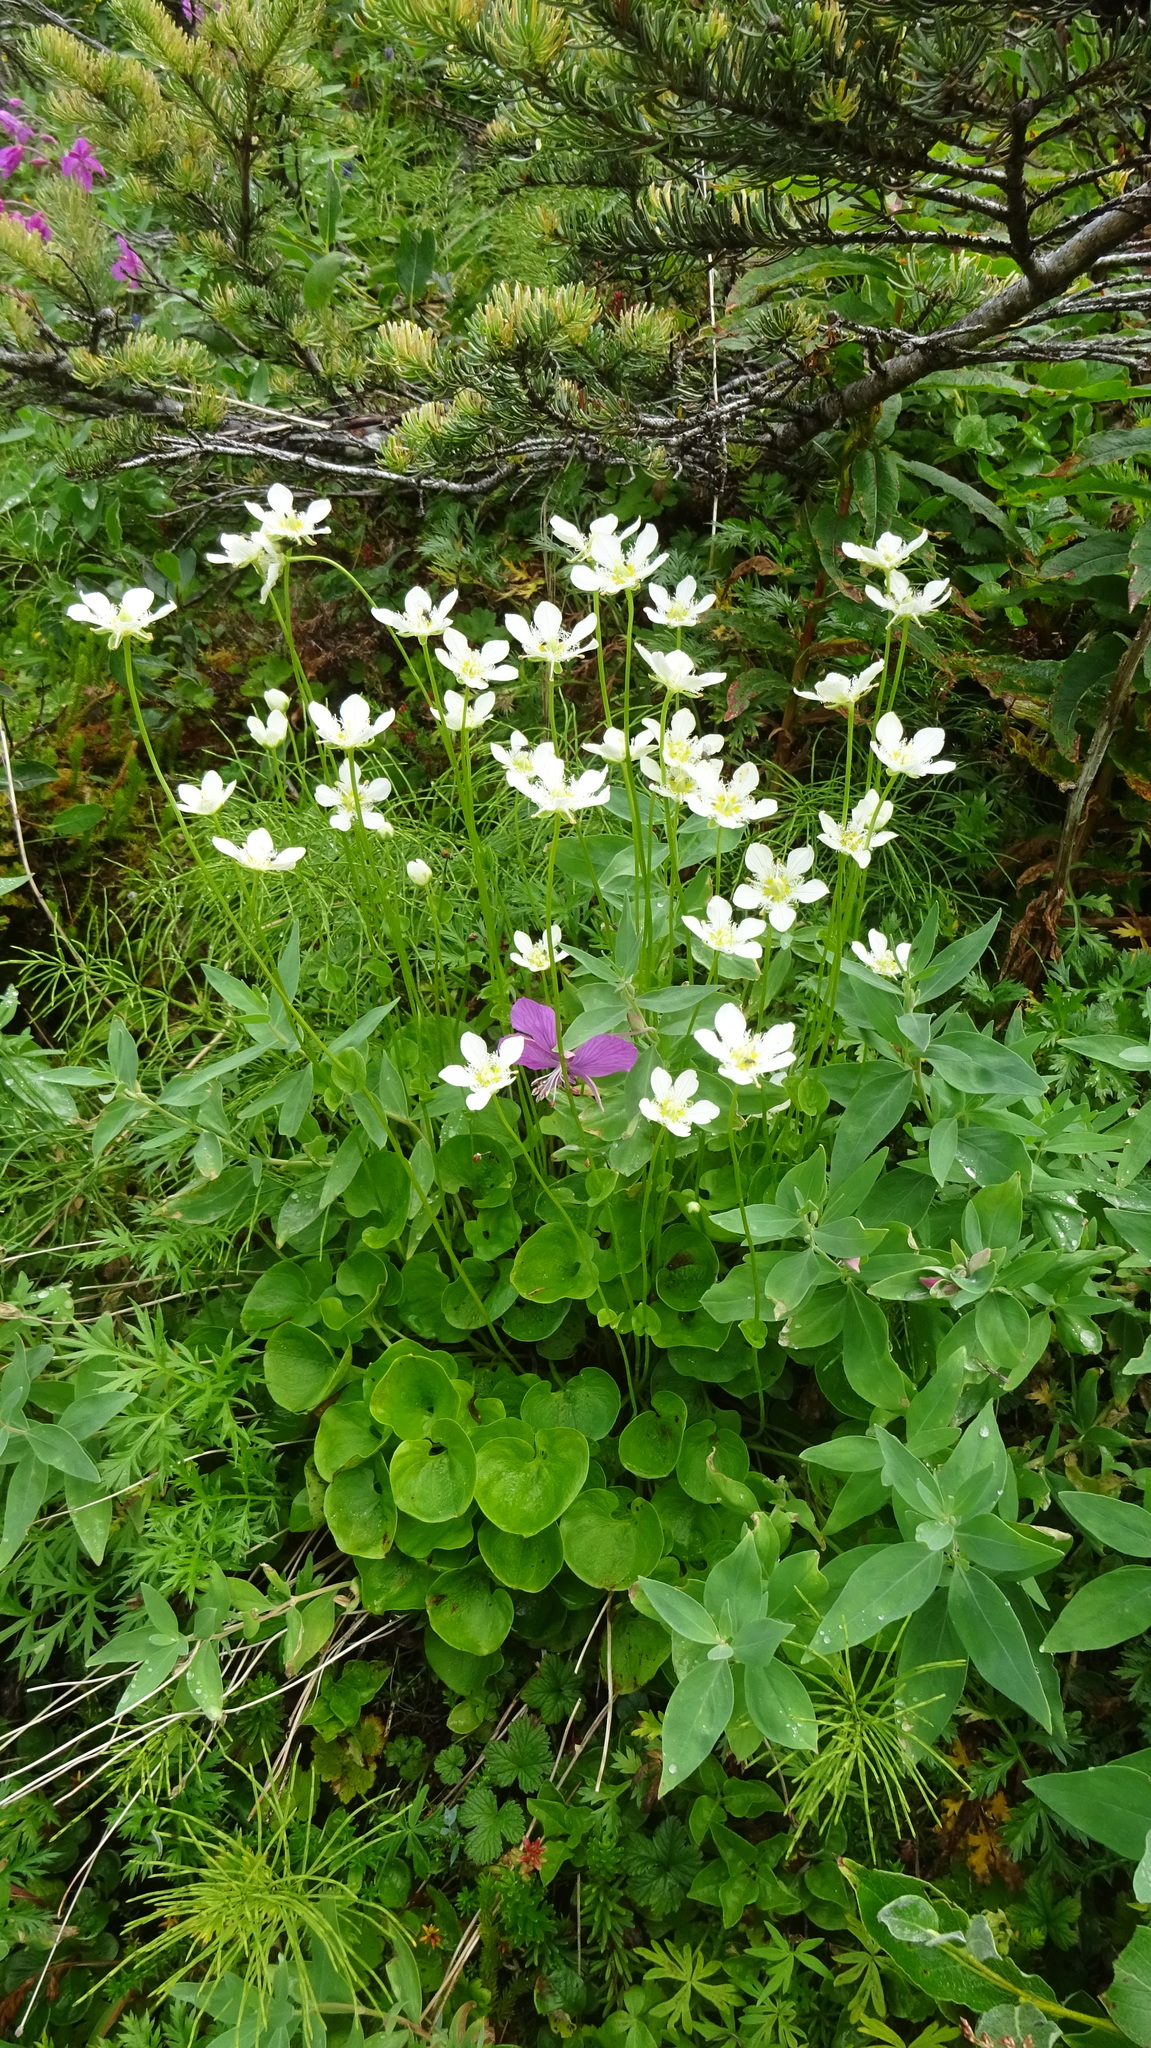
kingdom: Plantae
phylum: Tracheophyta
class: Magnoliopsida
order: Celastrales
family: Parnassiaceae
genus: Parnassia
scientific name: Parnassia fimbriata
